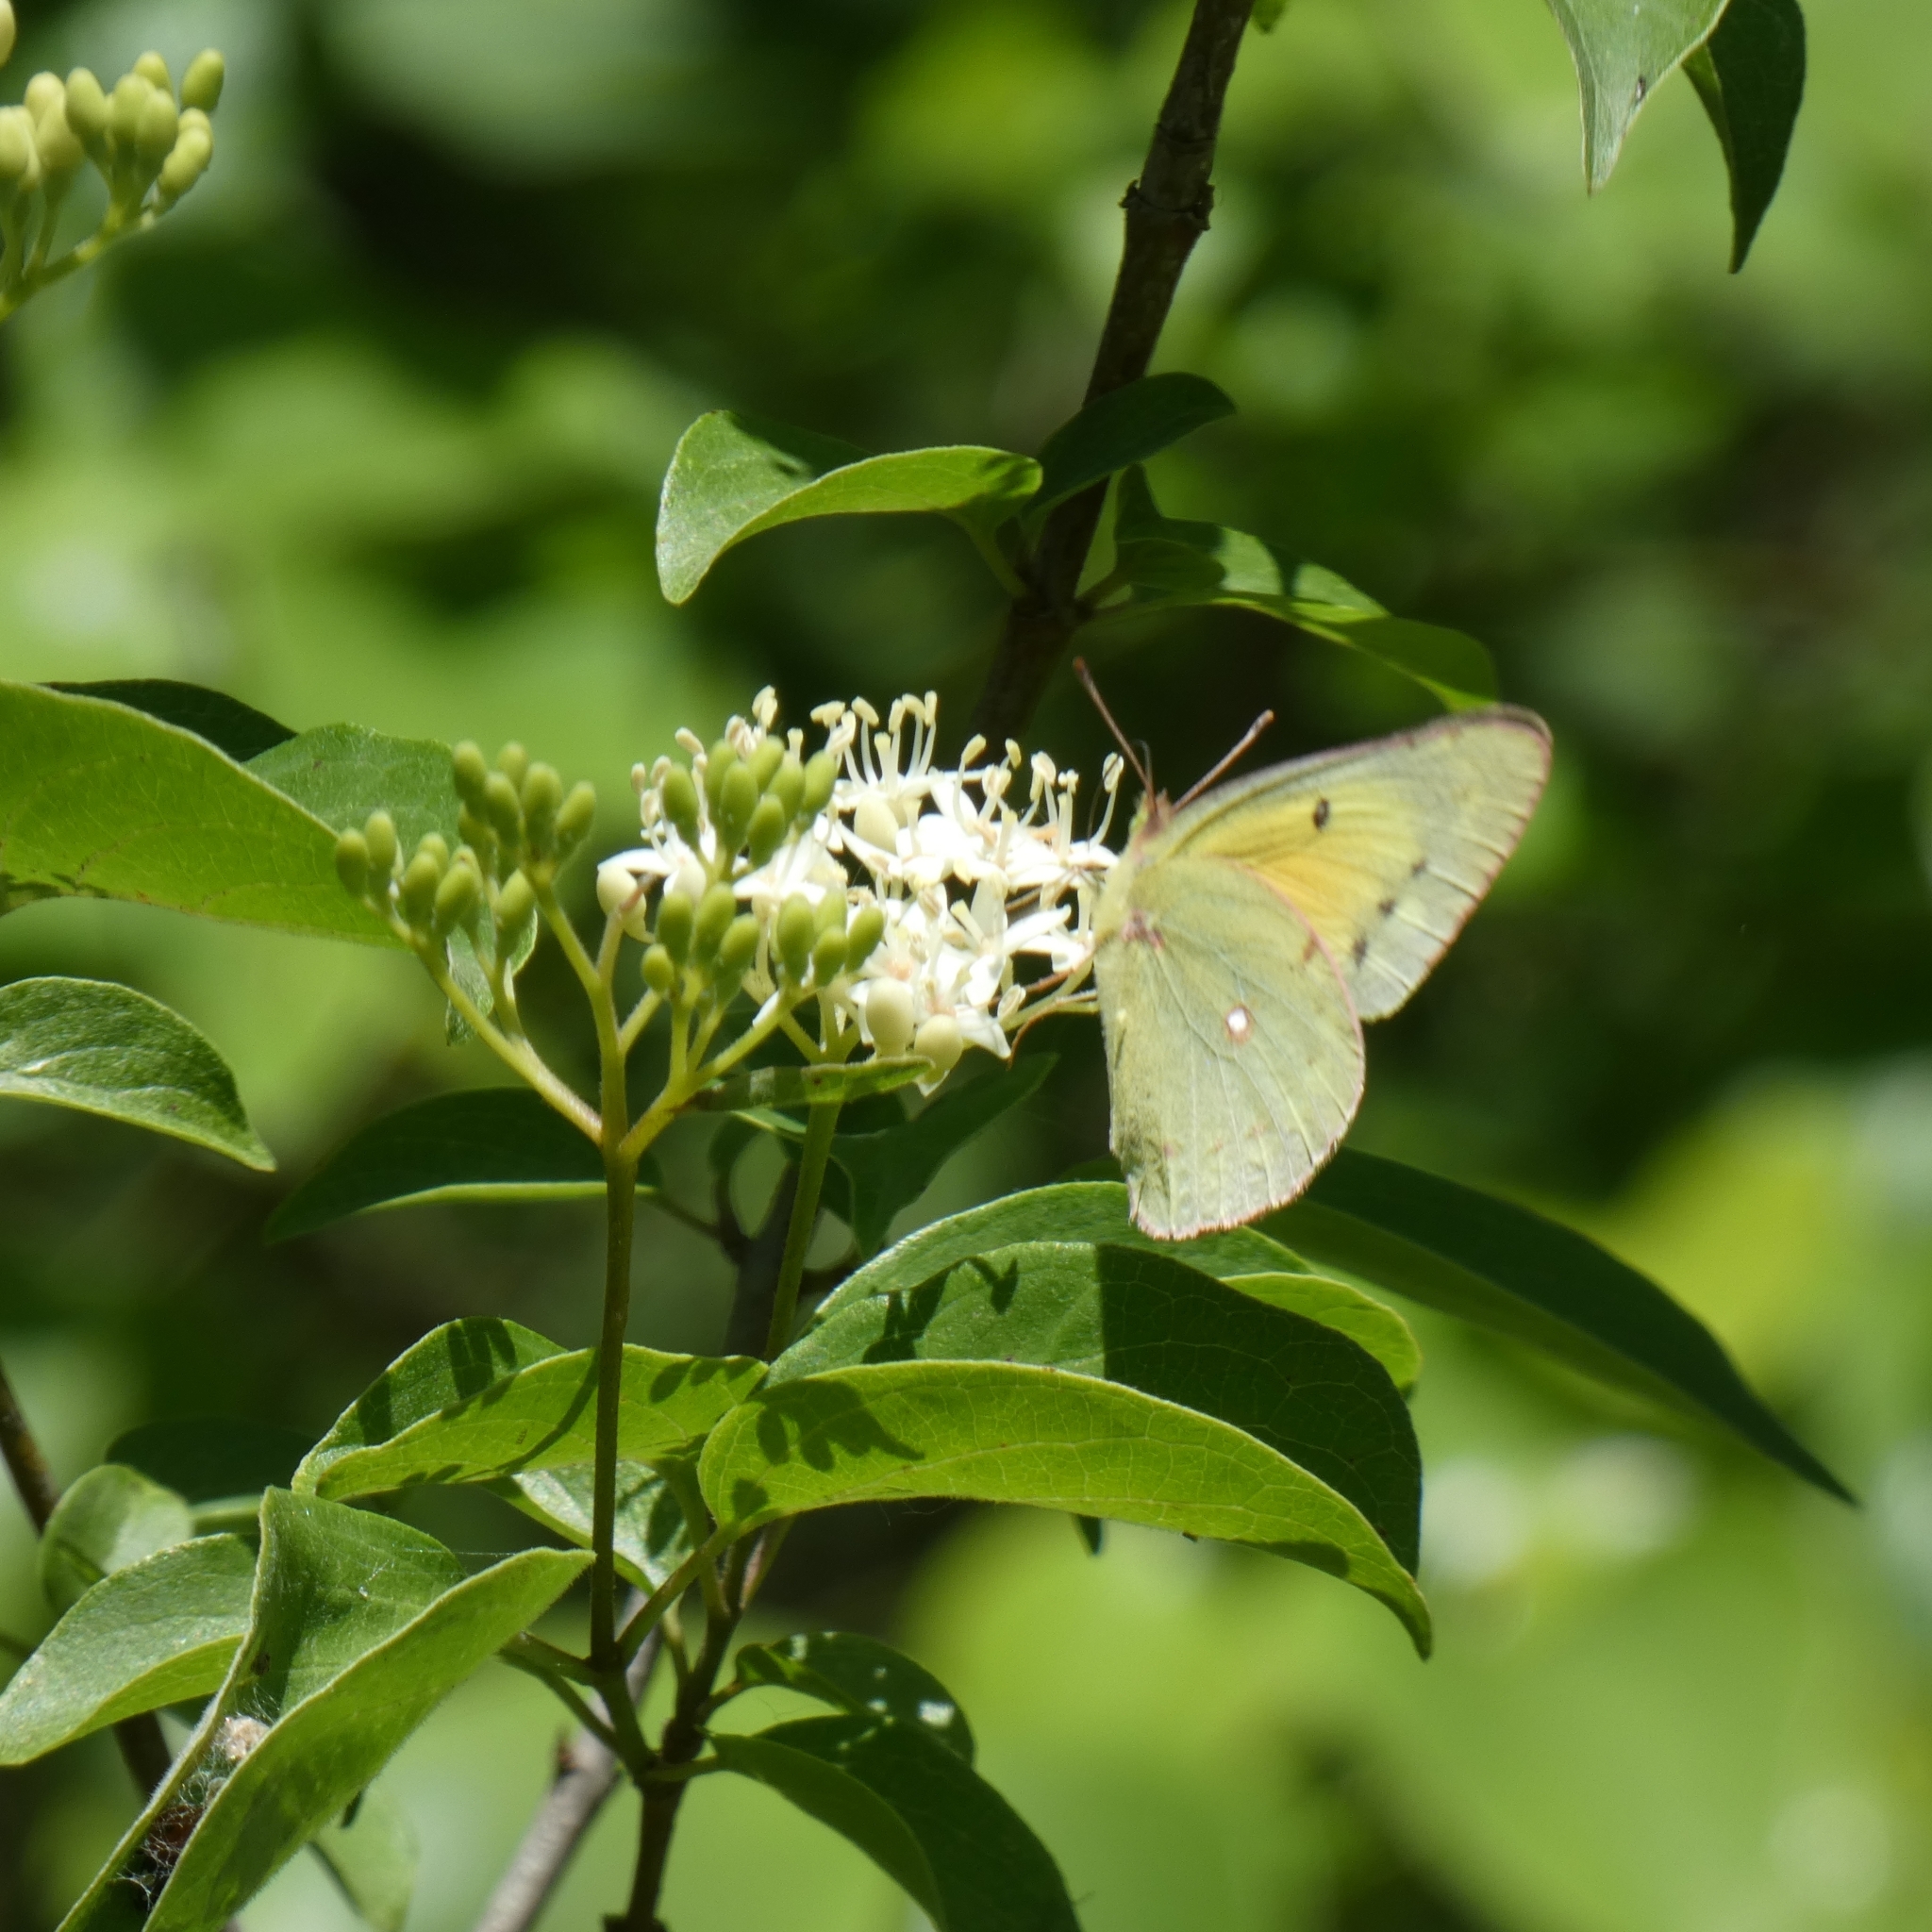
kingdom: Animalia
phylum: Arthropoda
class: Insecta
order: Lepidoptera
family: Pieridae
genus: Colias
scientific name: Colias eurytheme
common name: Alfalfa butterfly
